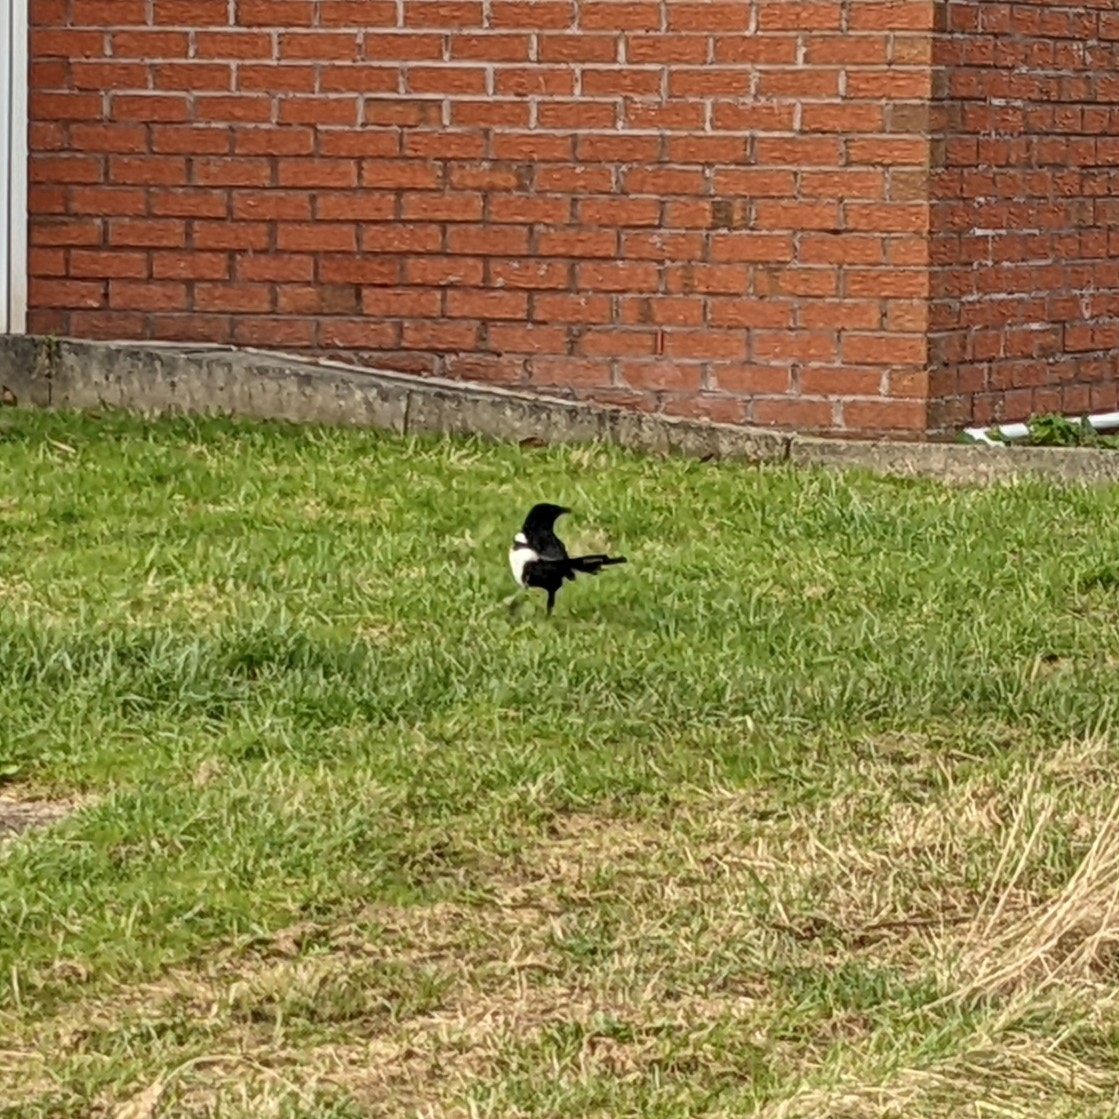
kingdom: Animalia
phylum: Chordata
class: Aves
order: Passeriformes
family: Corvidae
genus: Pica
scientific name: Pica pica
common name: Eurasian magpie
